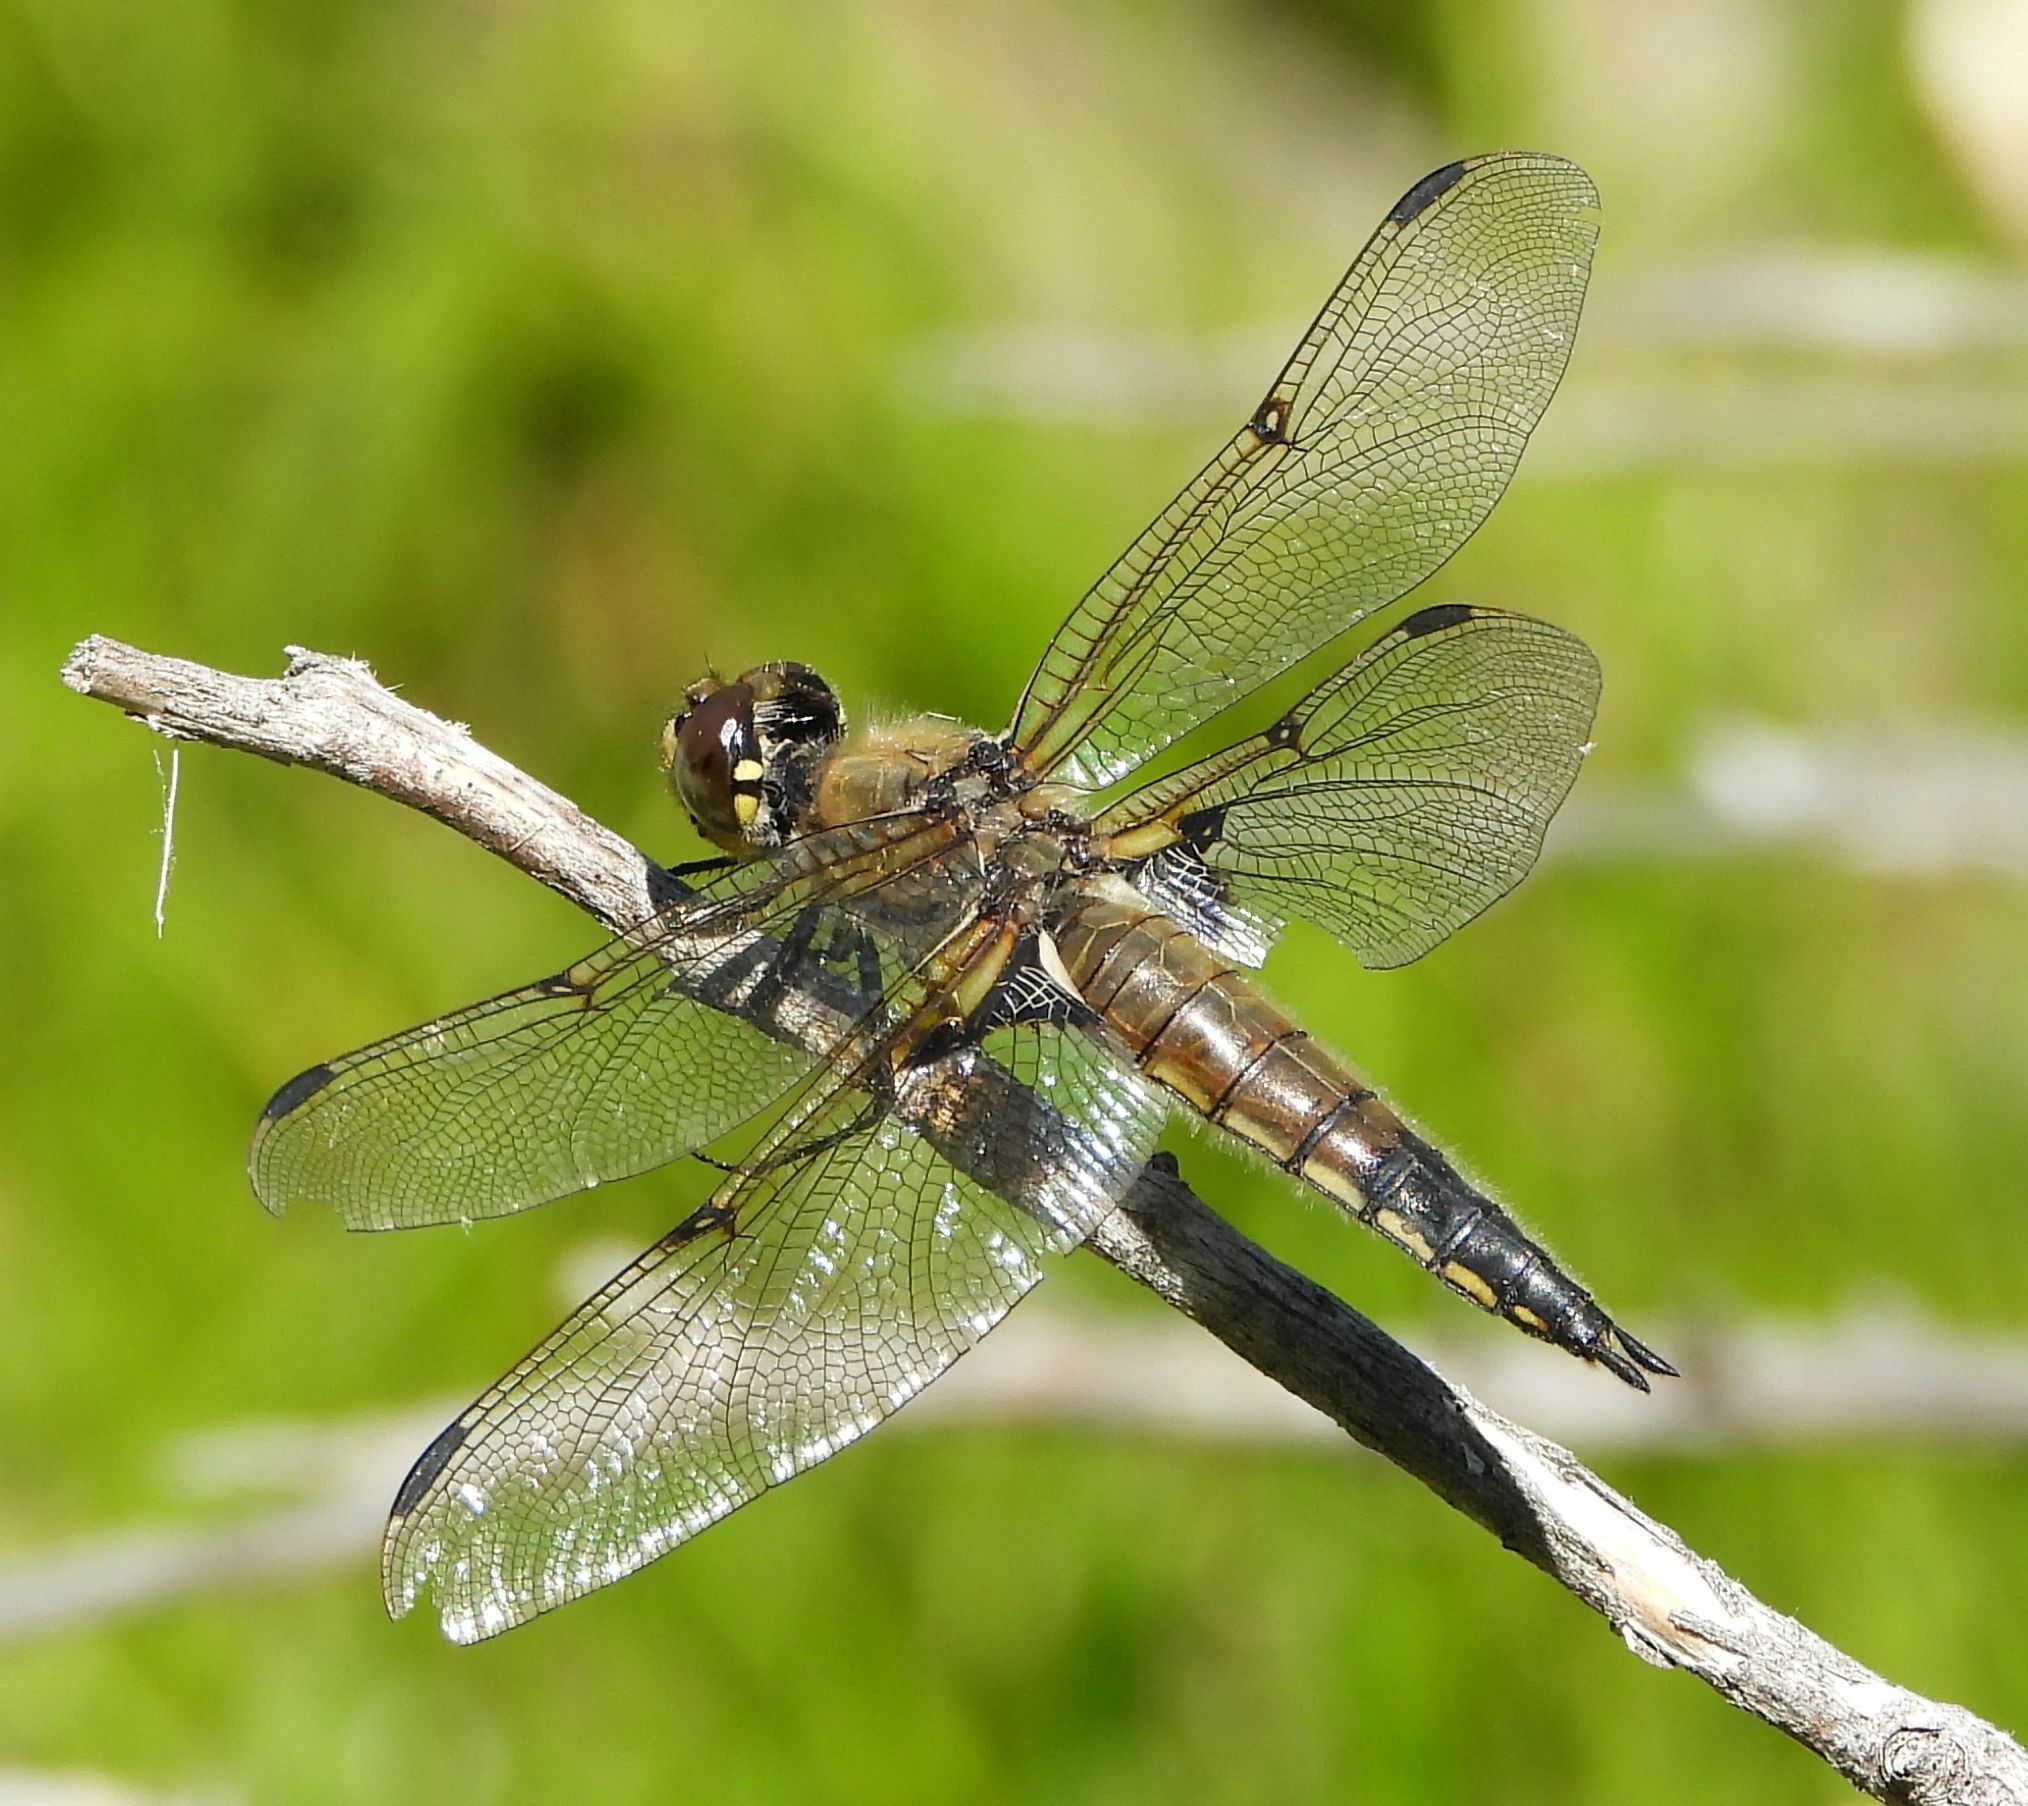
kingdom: Animalia
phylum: Arthropoda
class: Insecta
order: Odonata
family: Libellulidae
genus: Libellula
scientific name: Libellula quadrimaculata
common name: Four-spotted chaser
